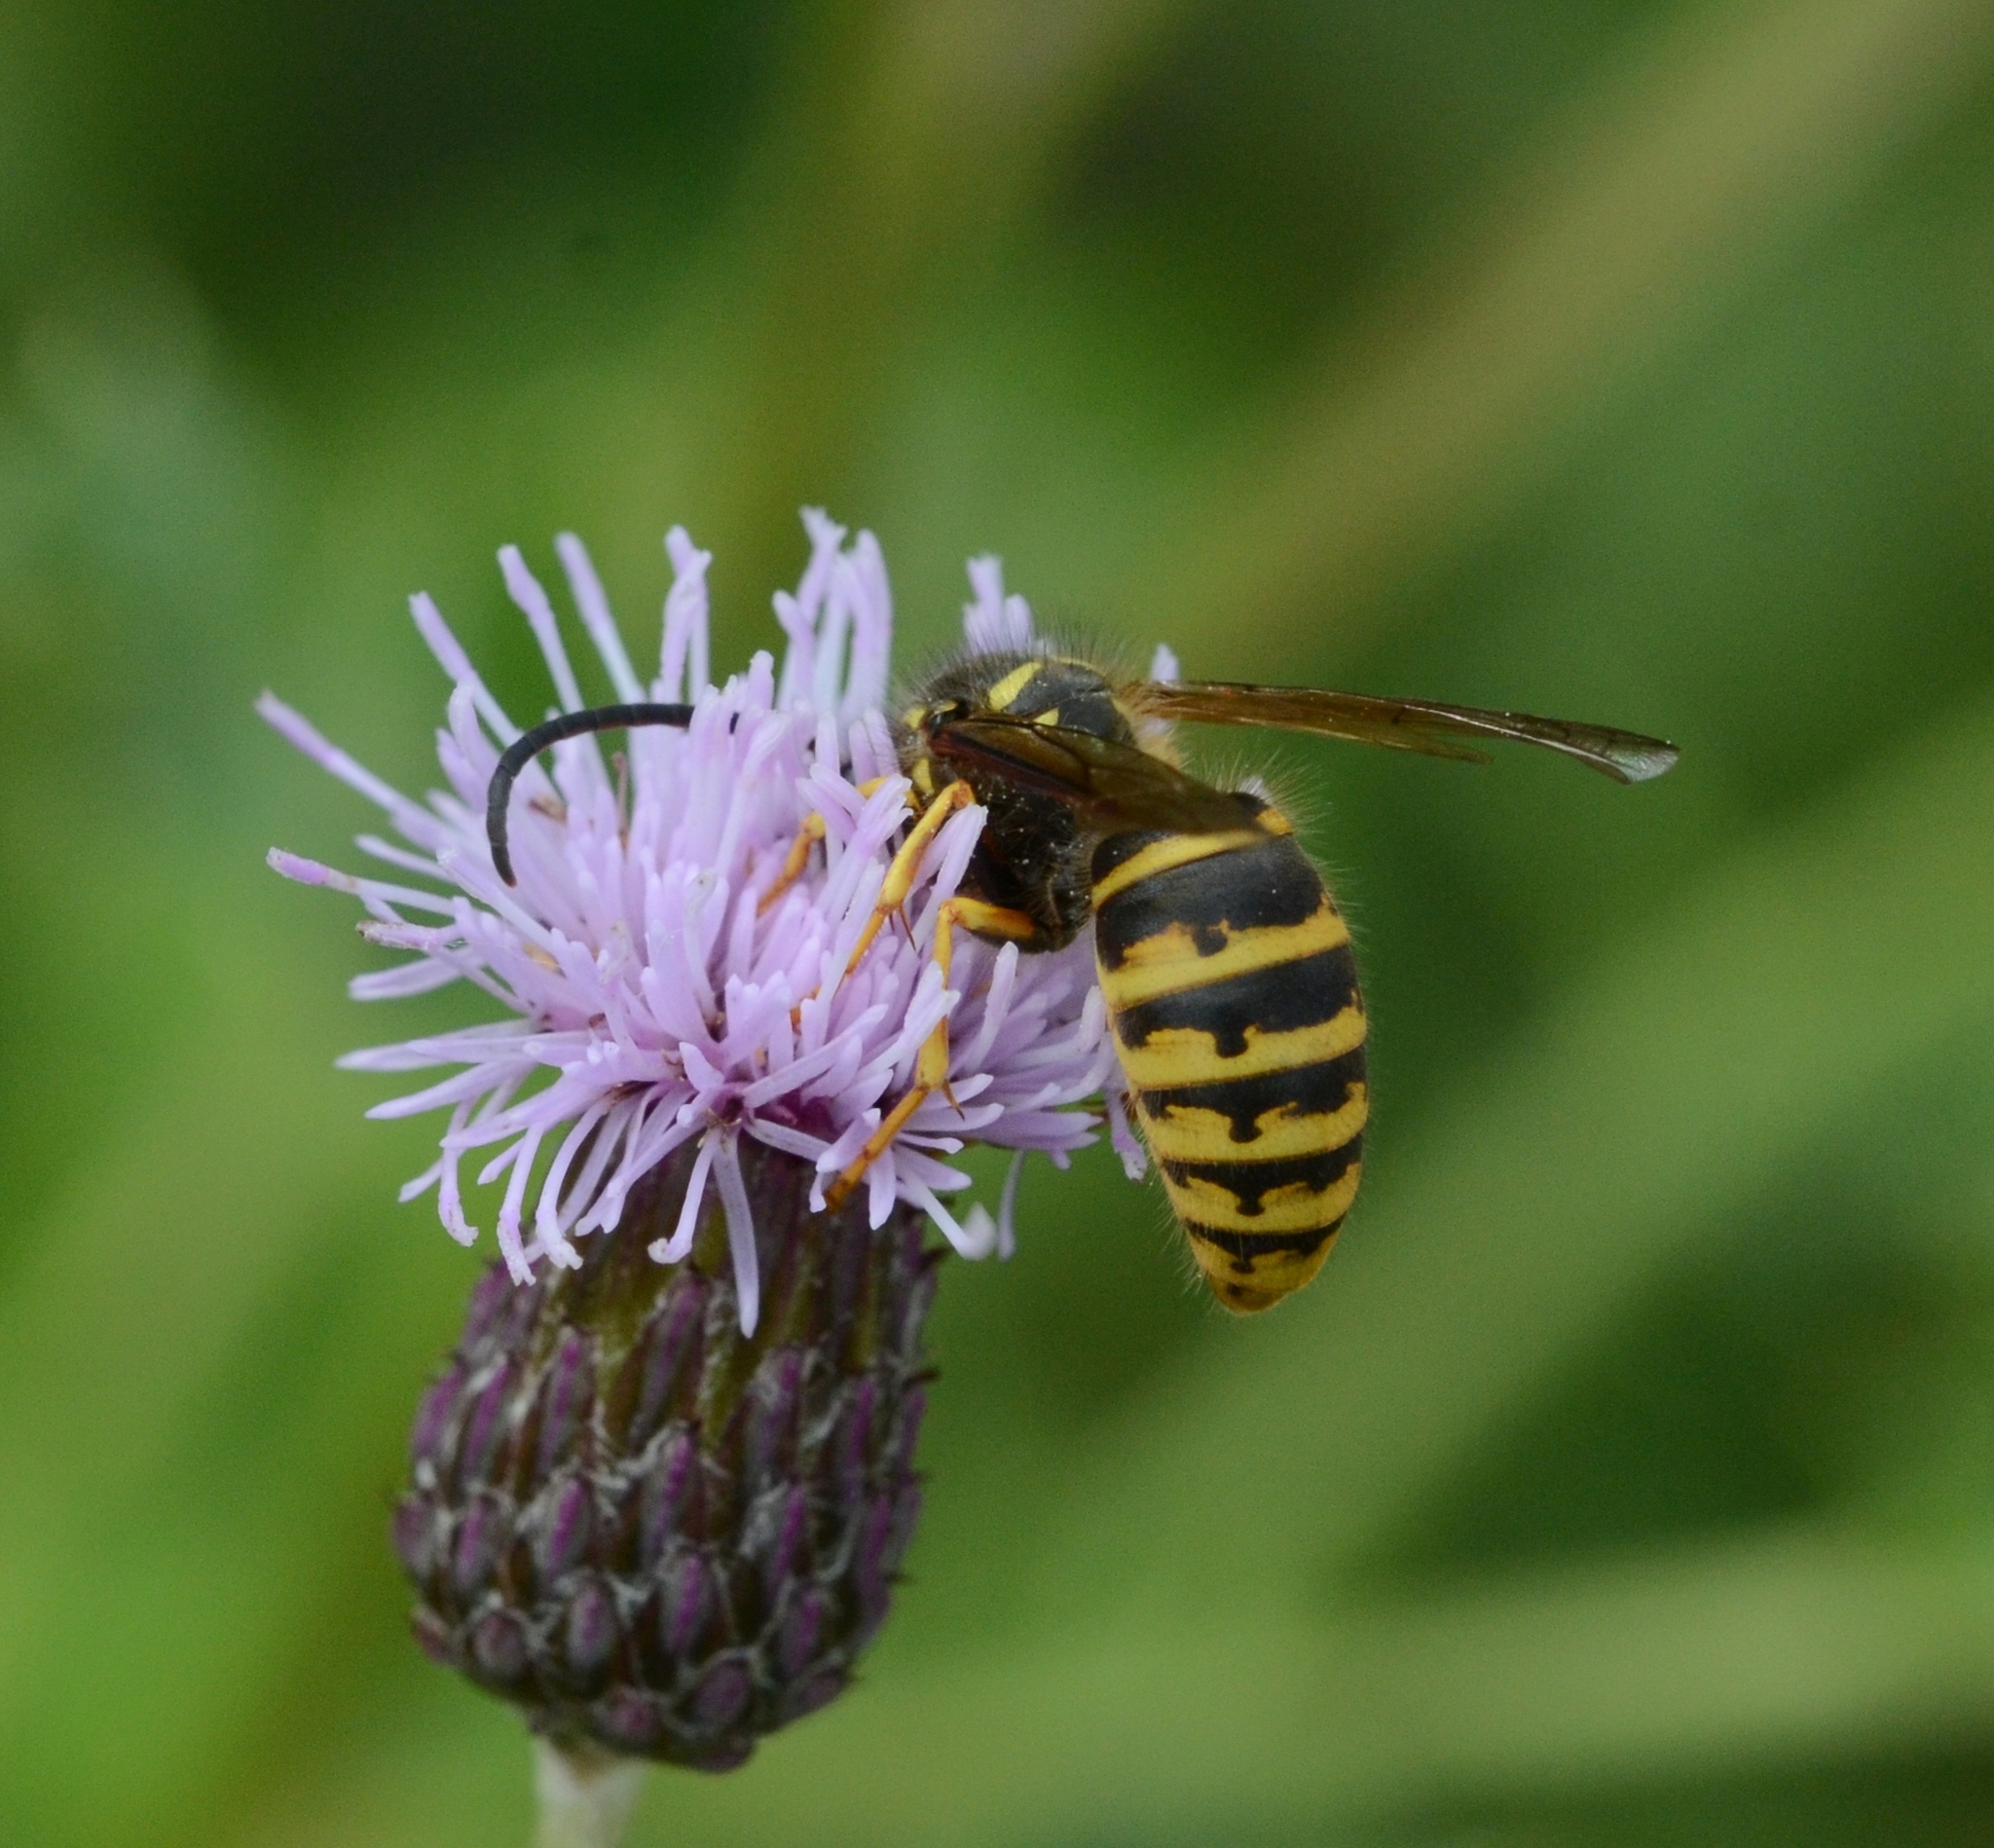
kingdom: Animalia
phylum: Arthropoda
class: Insecta
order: Hymenoptera
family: Vespidae
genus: Dolichovespula
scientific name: Dolichovespula saxonica
